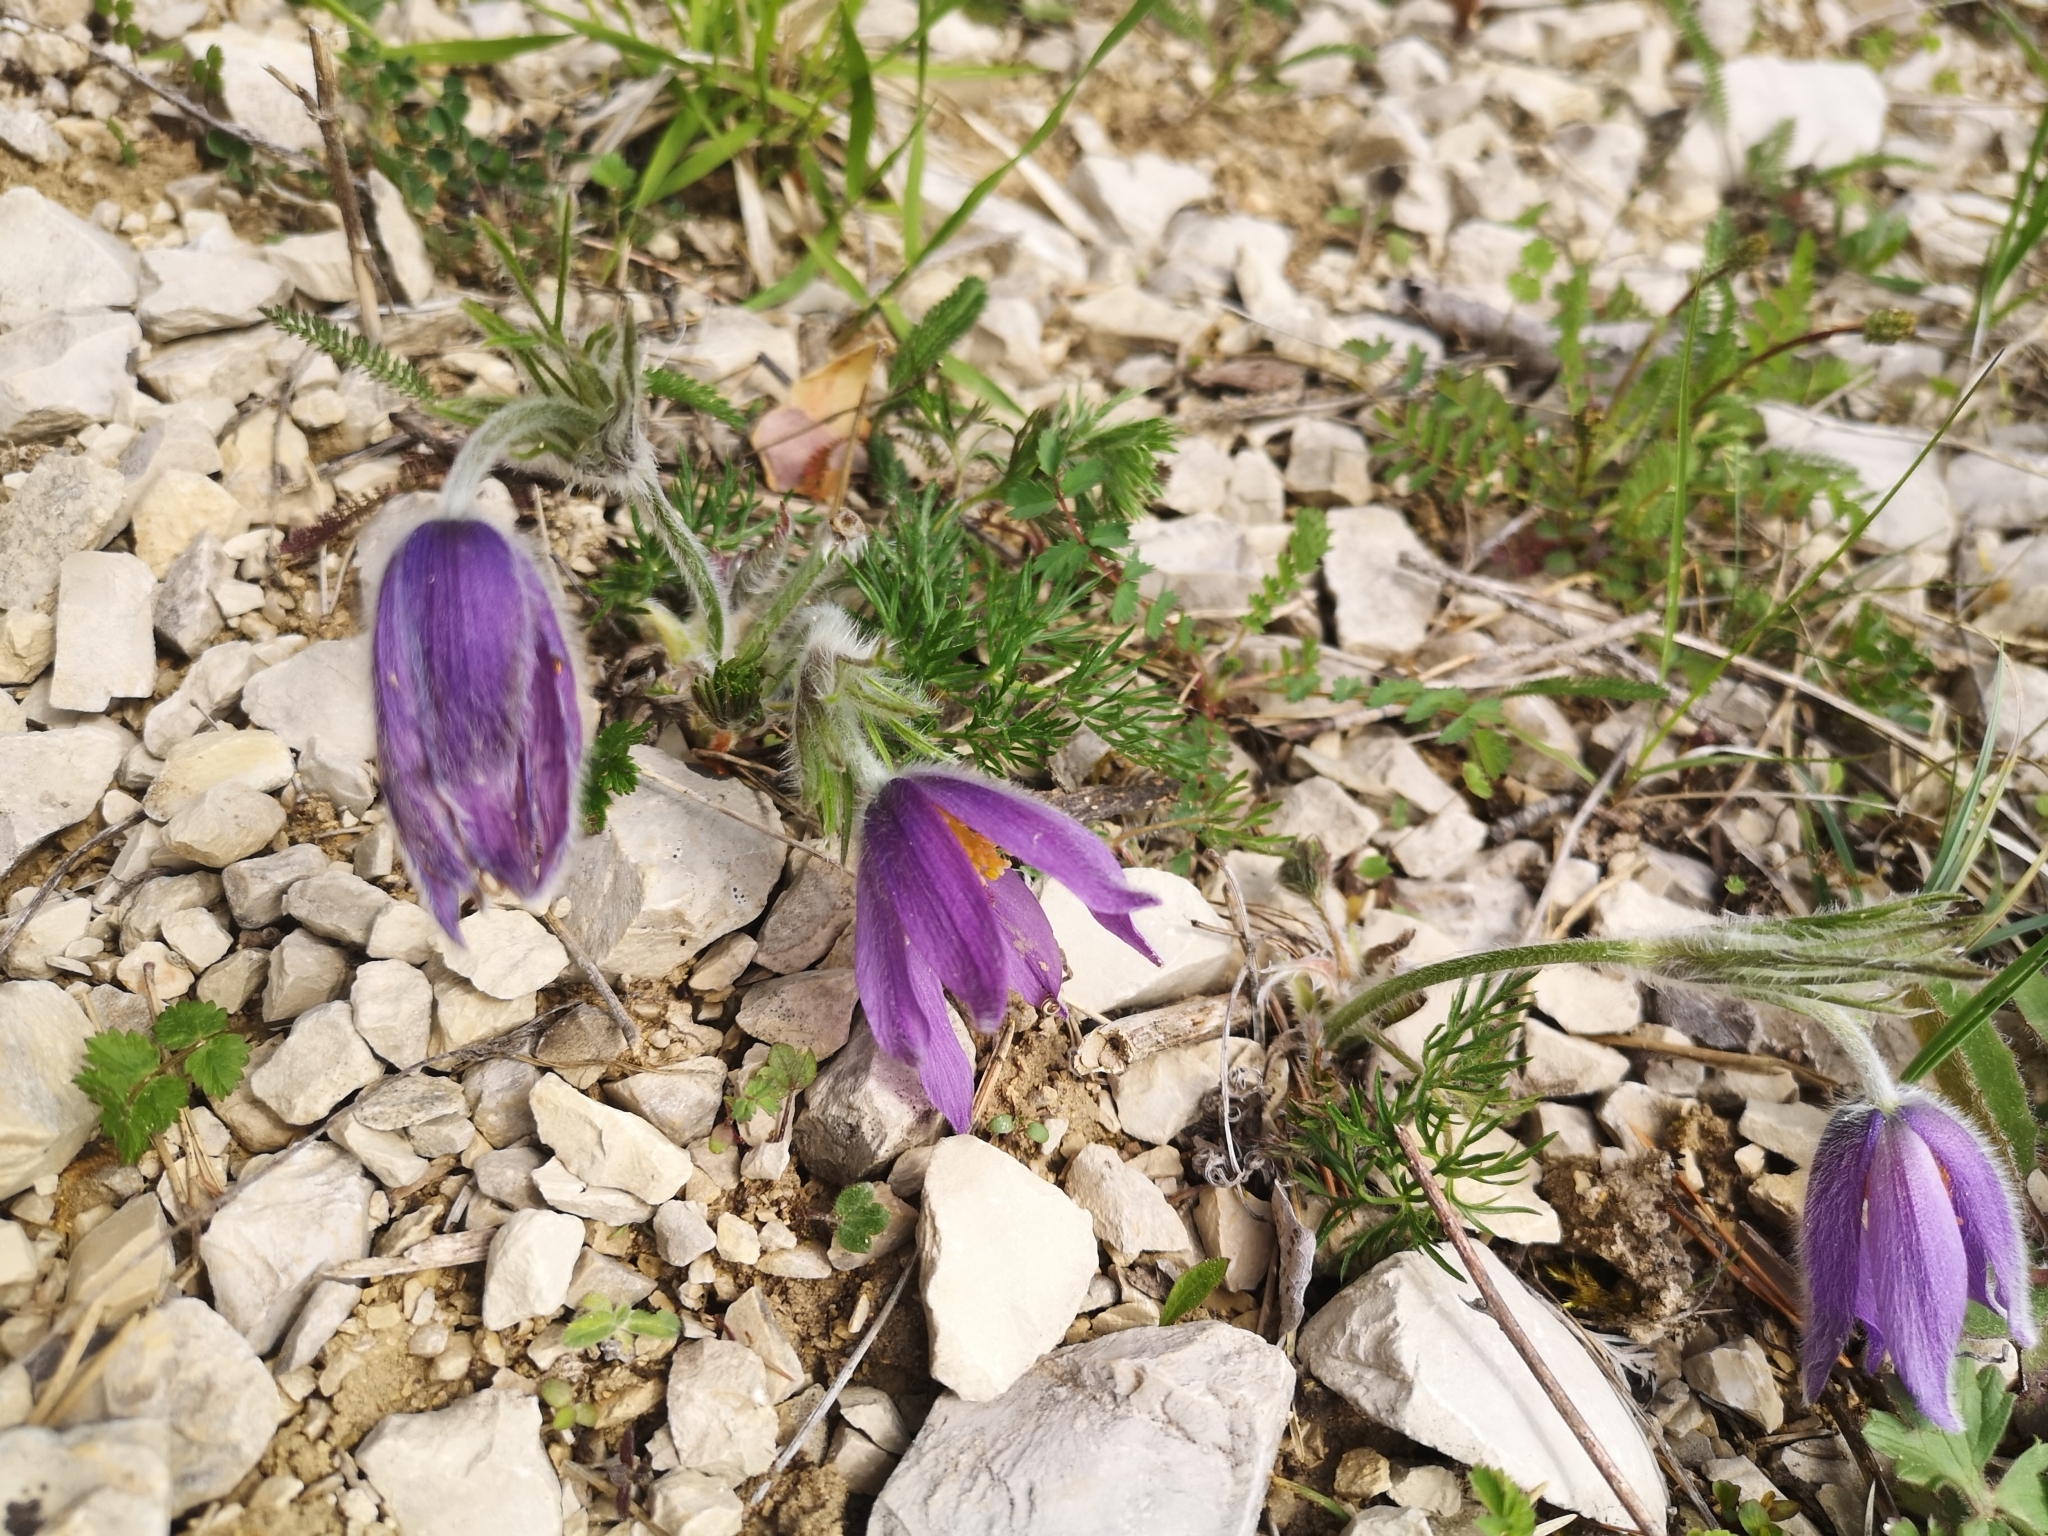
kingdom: Plantae
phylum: Tracheophyta
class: Magnoliopsida
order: Ranunculales
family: Ranunculaceae
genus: Pulsatilla
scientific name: Pulsatilla vulgaris
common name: Pasqueflower
